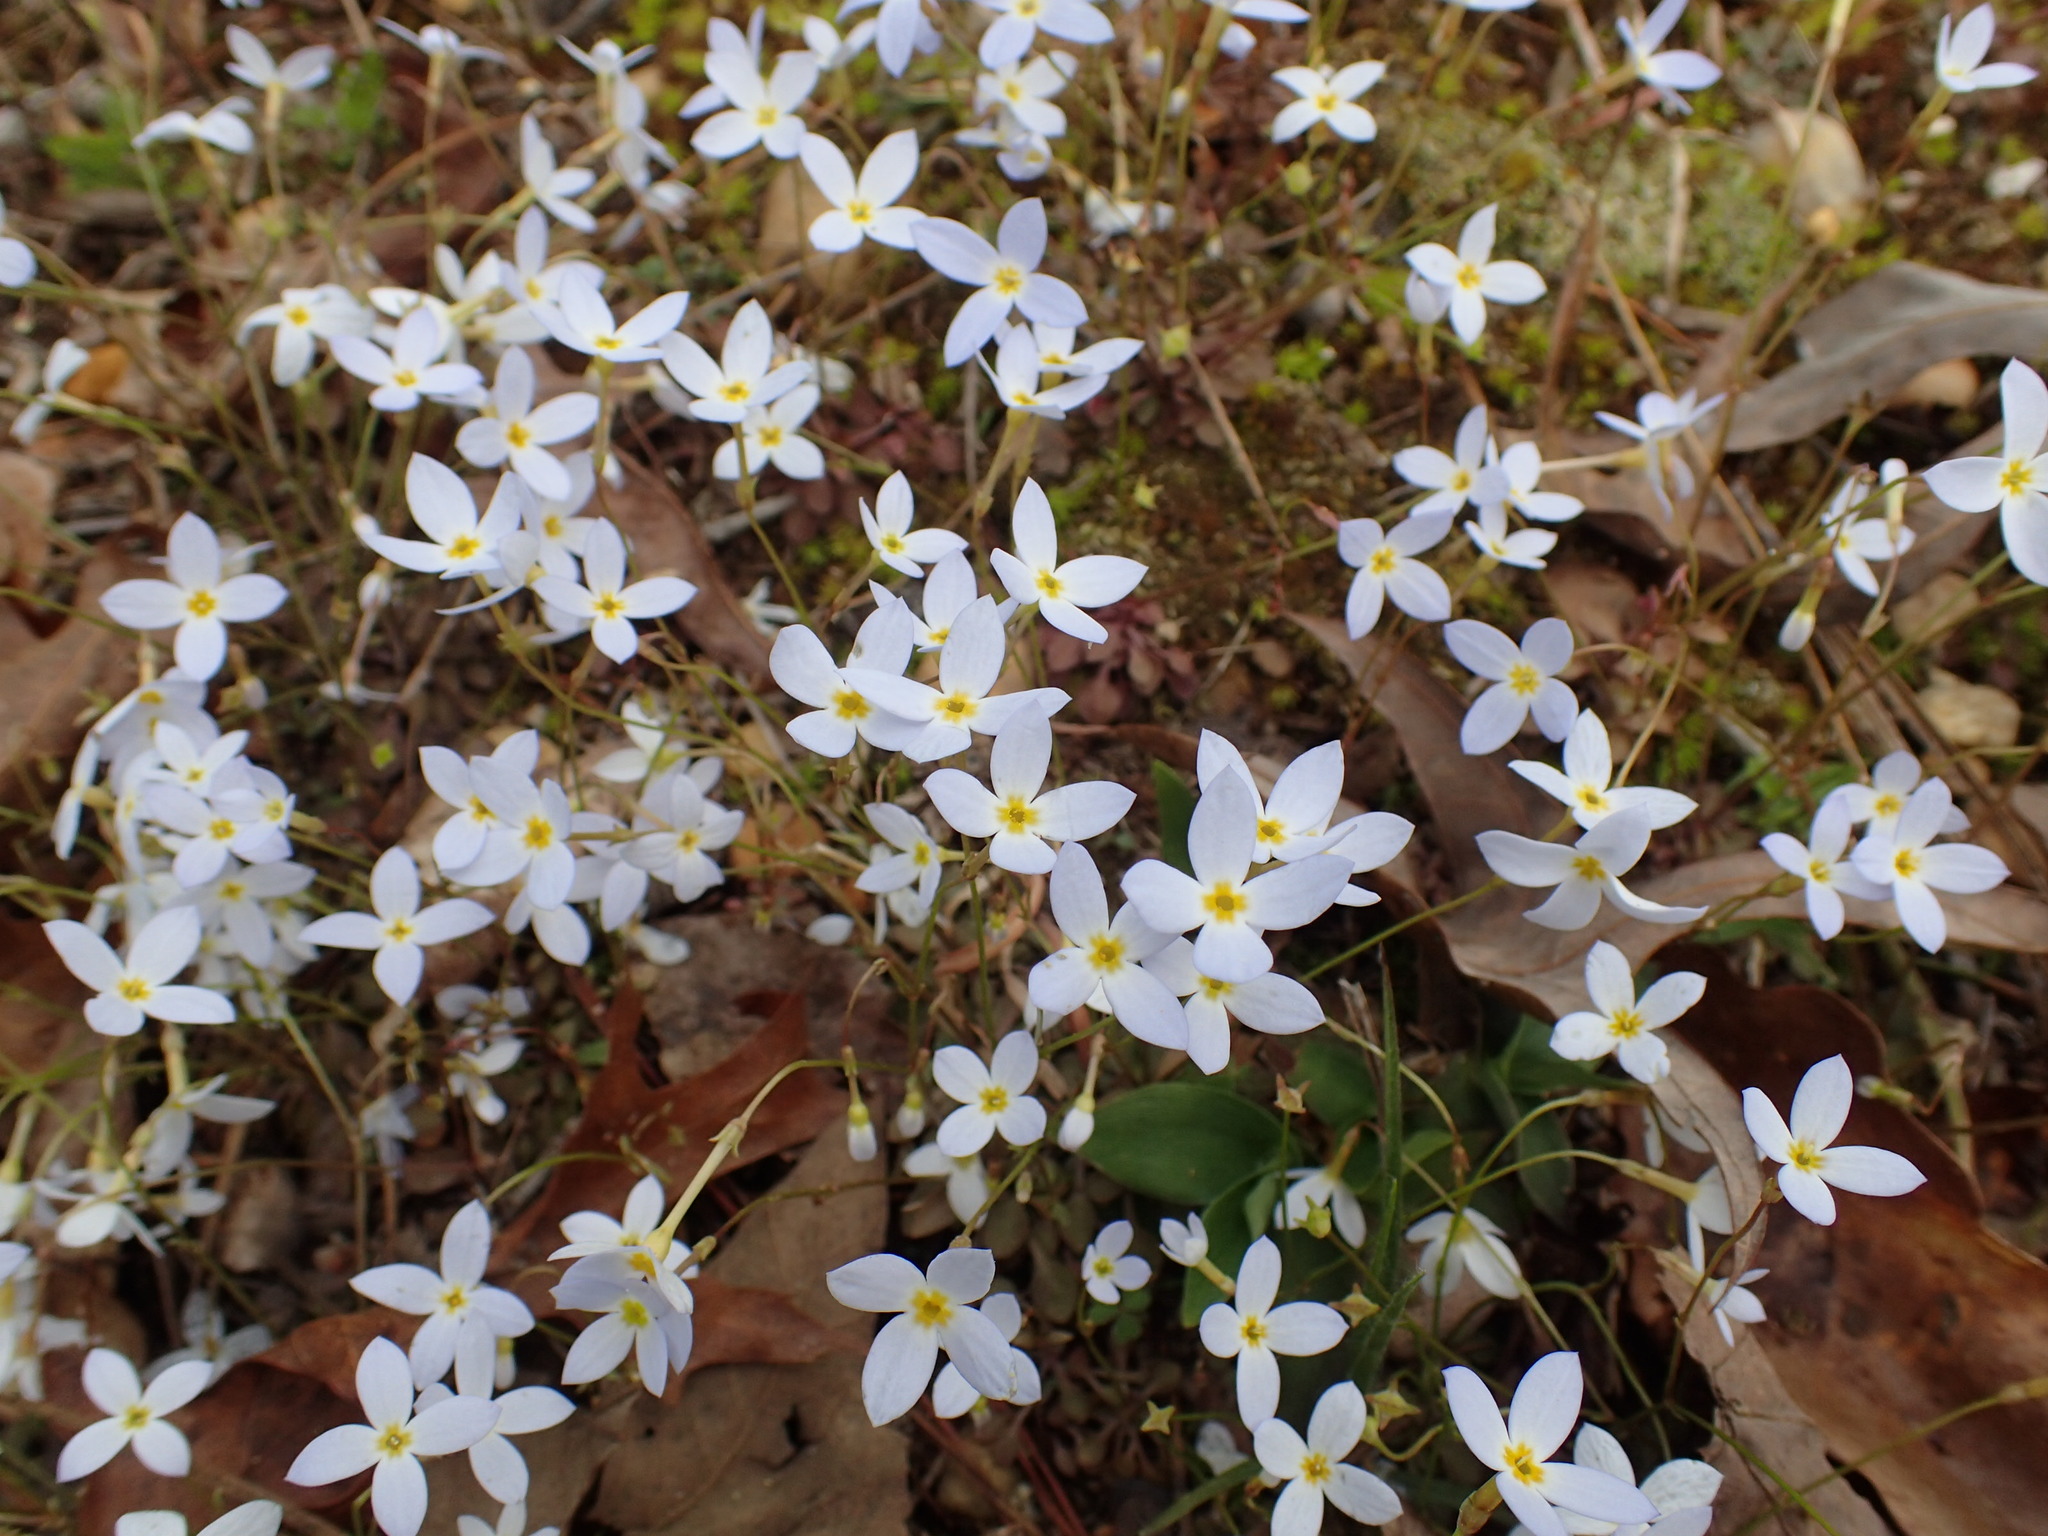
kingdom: Plantae
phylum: Tracheophyta
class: Magnoliopsida
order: Gentianales
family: Rubiaceae
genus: Houstonia
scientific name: Houstonia caerulea
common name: Bluets
